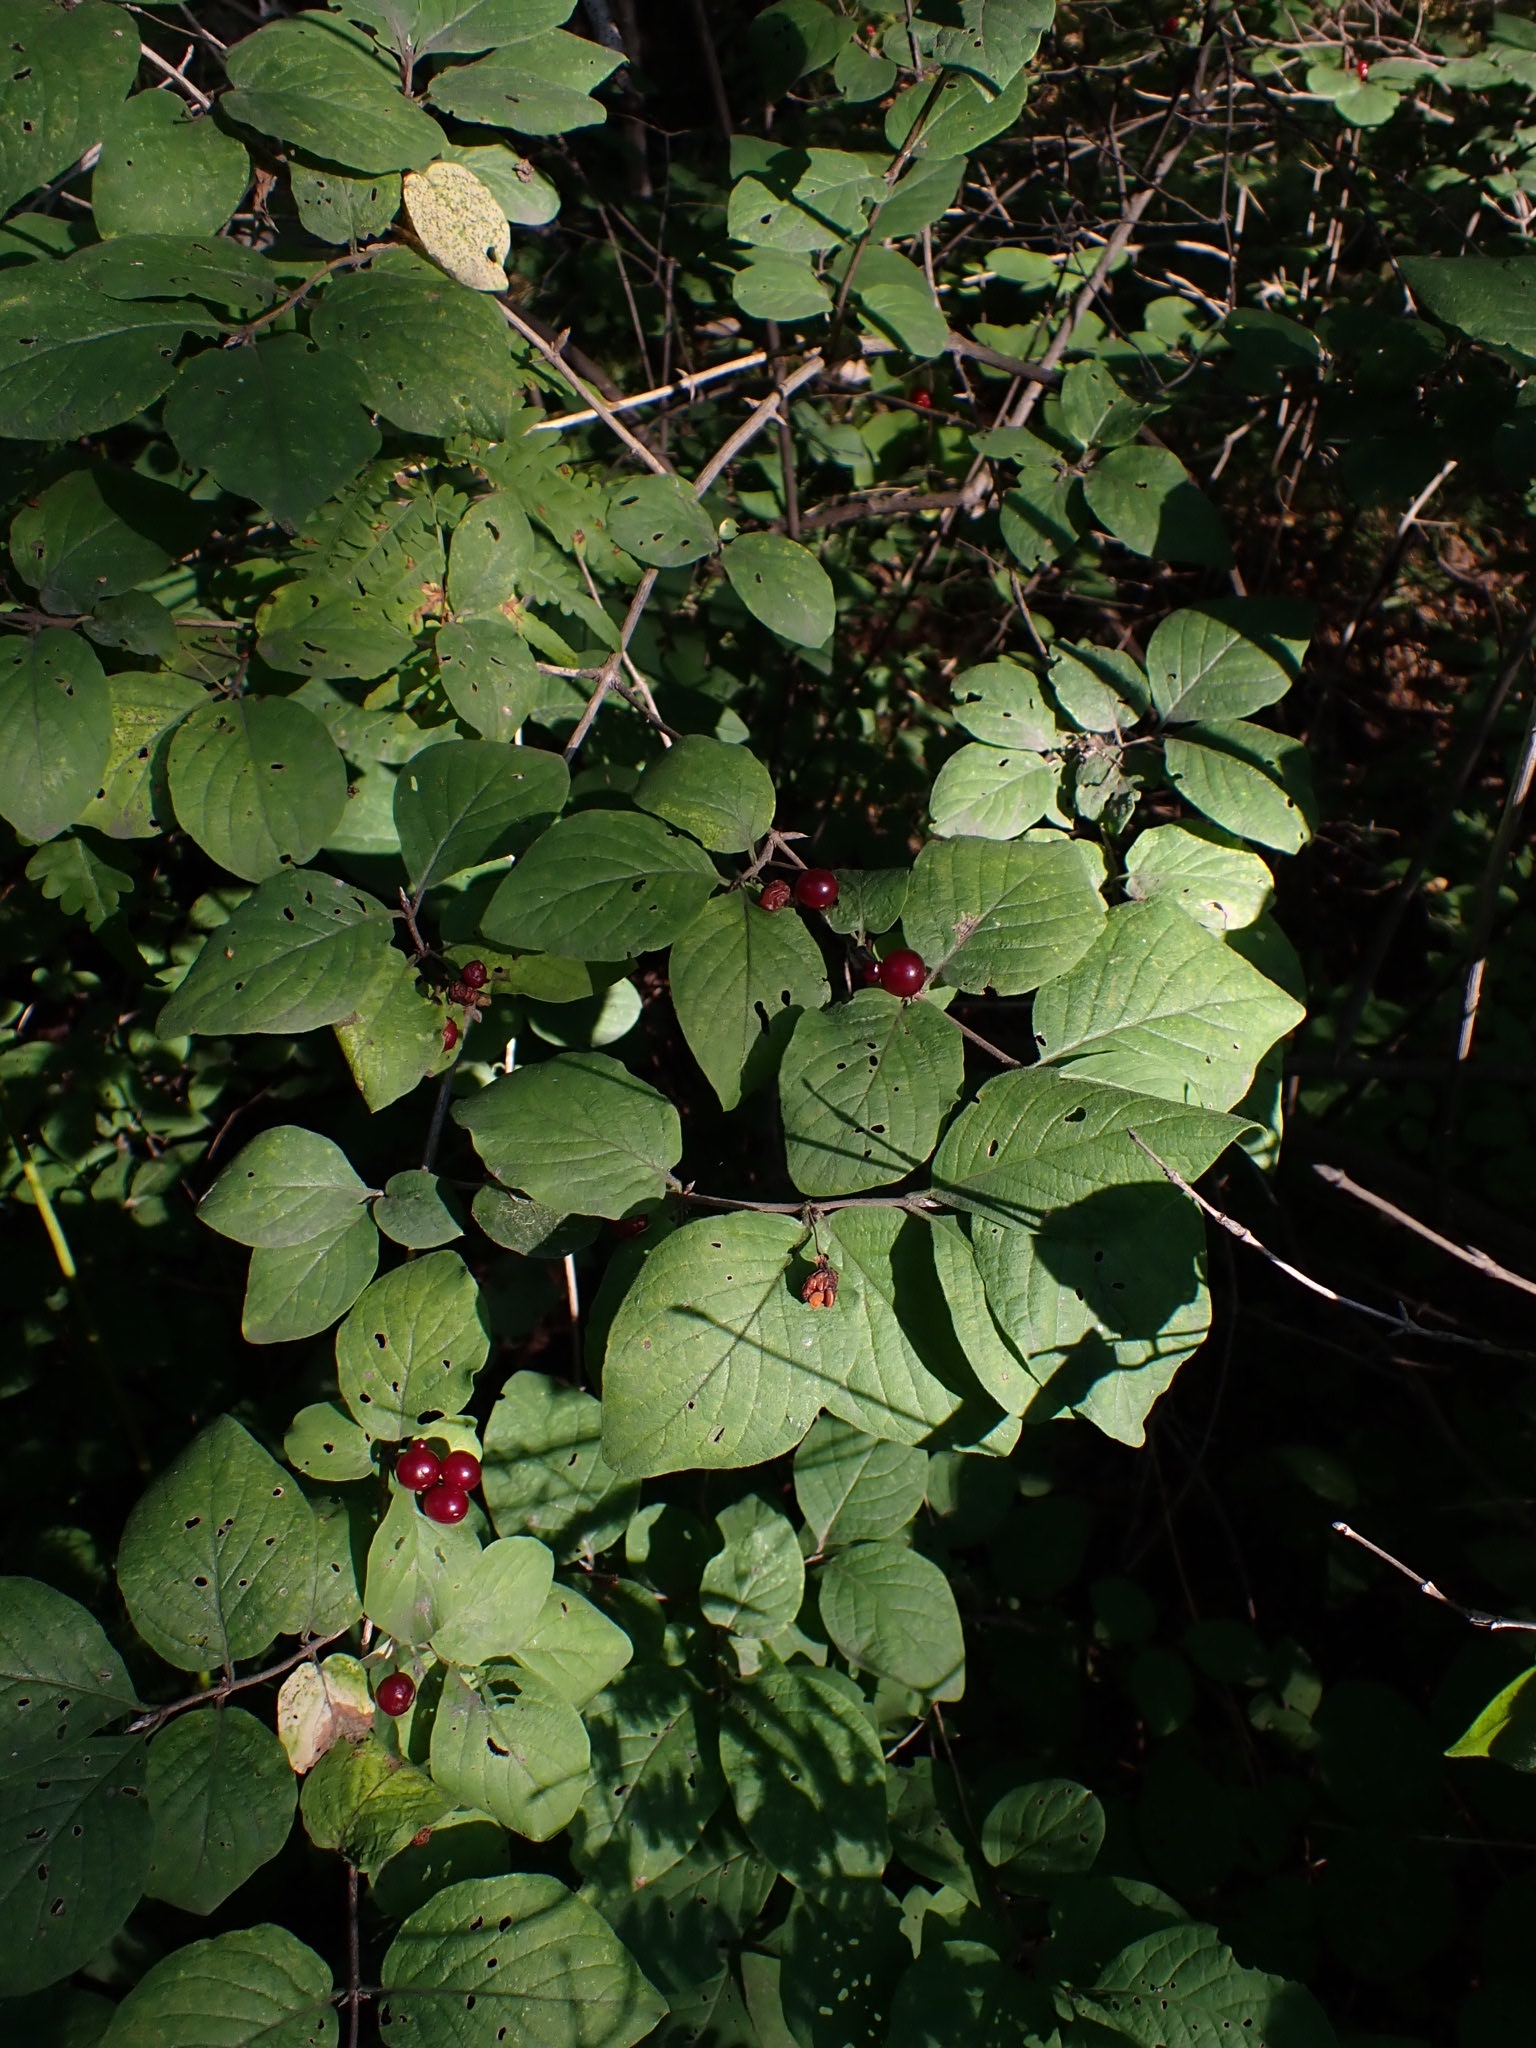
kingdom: Plantae
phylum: Tracheophyta
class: Magnoliopsida
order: Dipsacales
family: Caprifoliaceae
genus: Lonicera
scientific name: Lonicera xylosteum
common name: Fly honeysuckle
